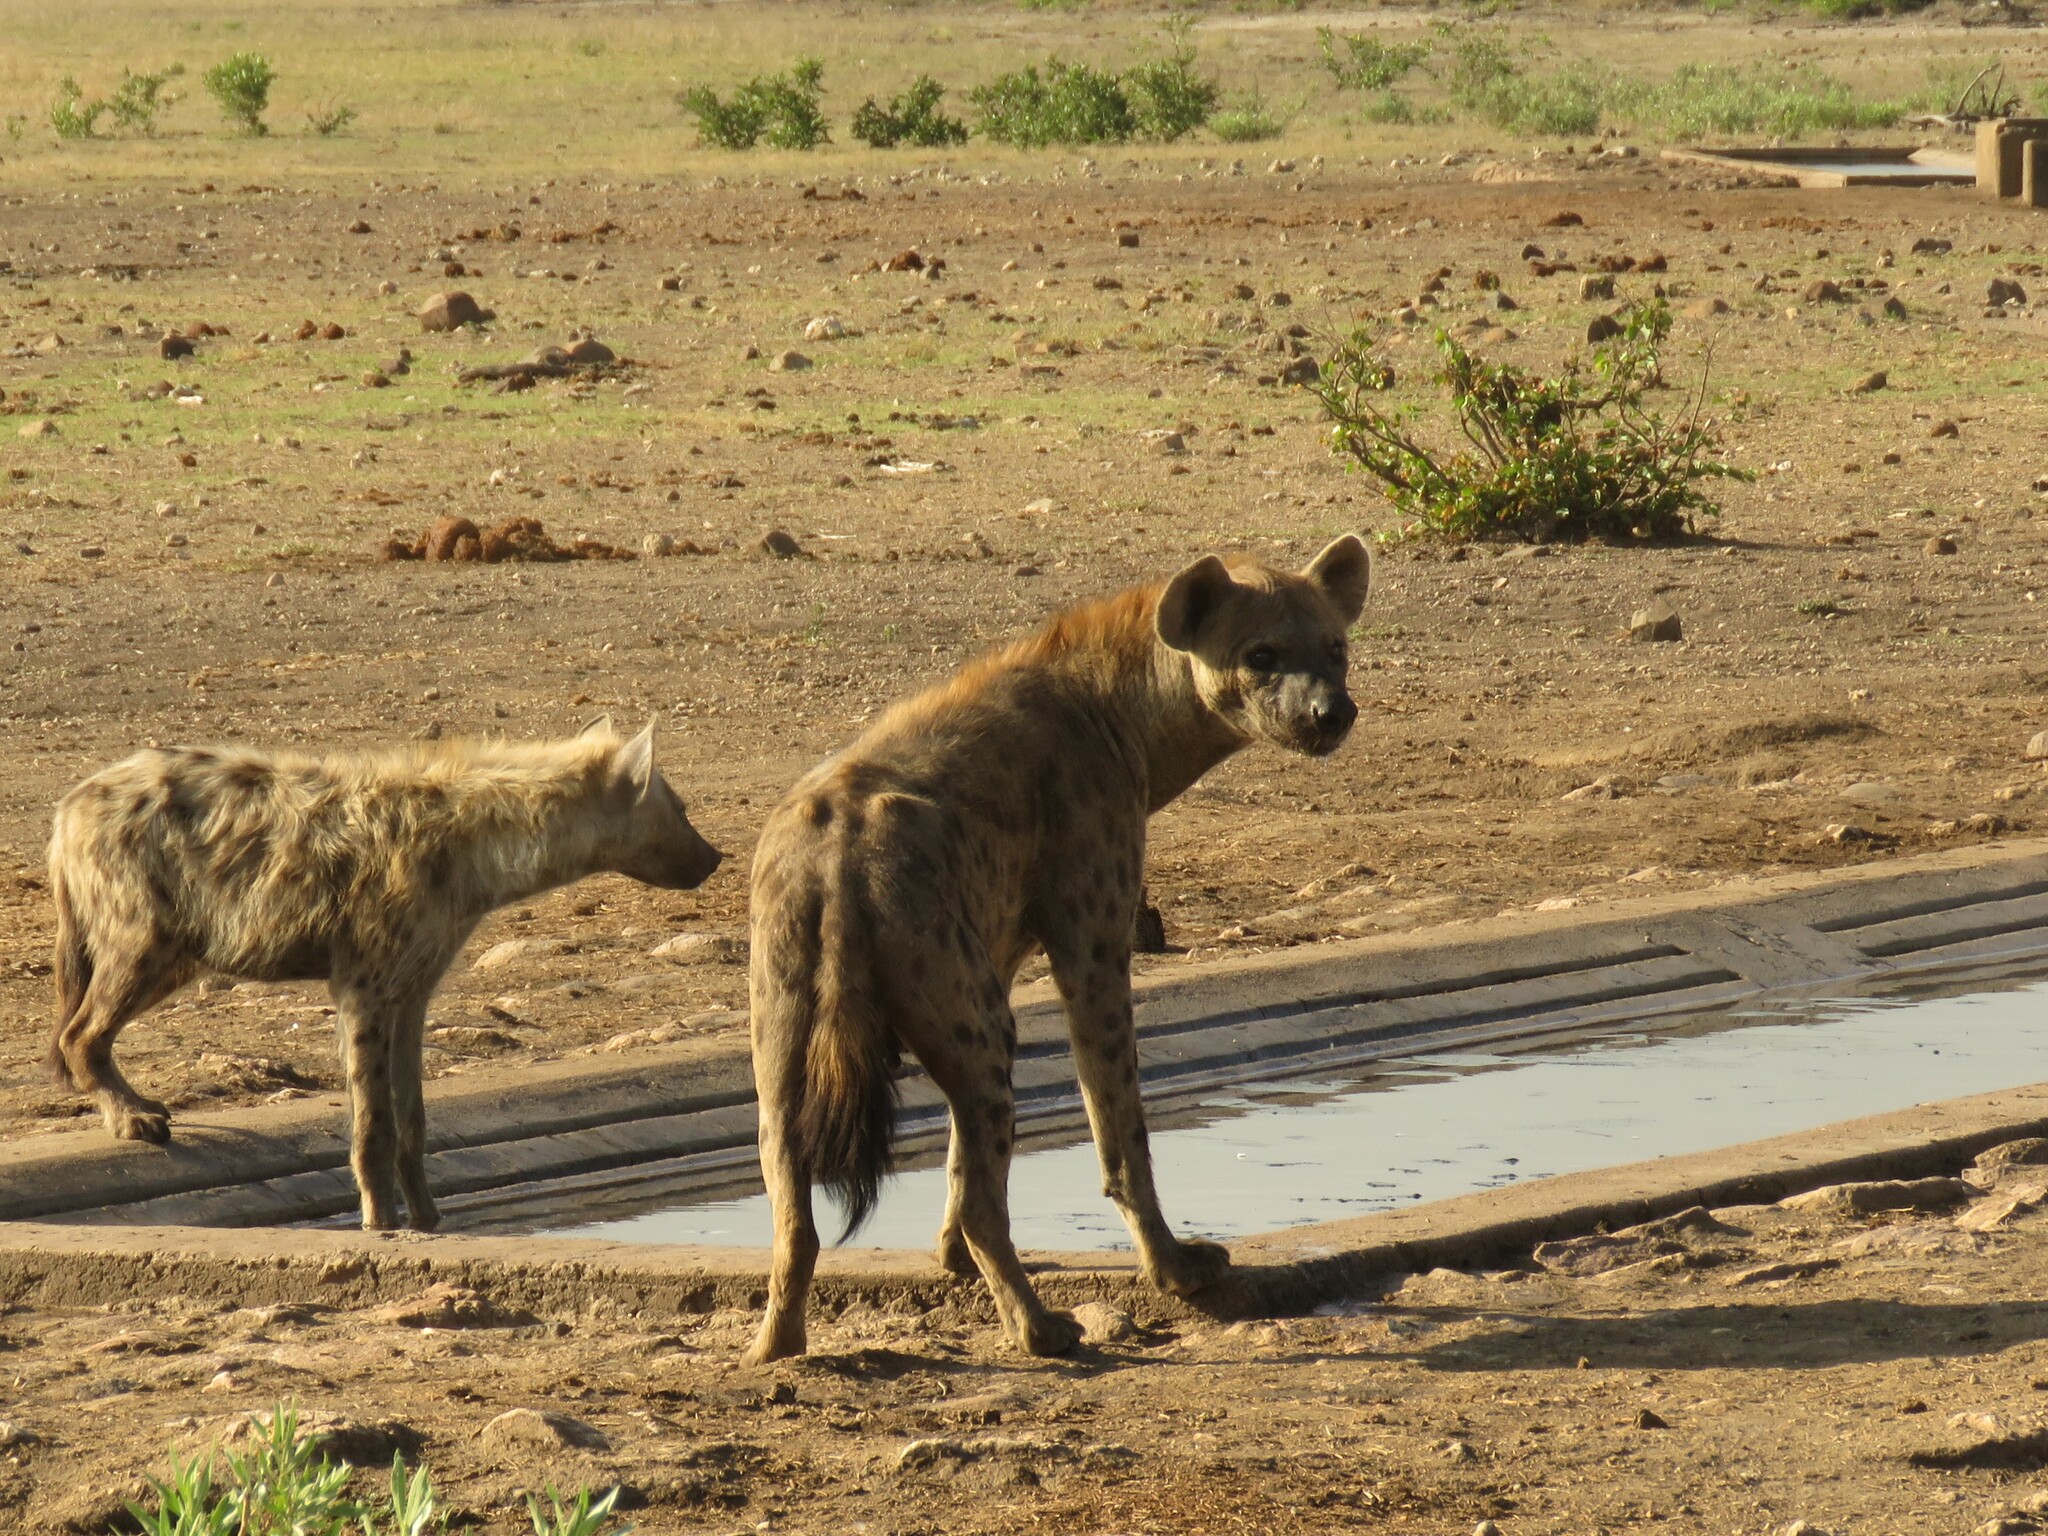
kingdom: Animalia
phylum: Chordata
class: Mammalia
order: Carnivora
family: Hyaenidae
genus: Crocuta
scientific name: Crocuta crocuta
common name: Spotted hyaena
